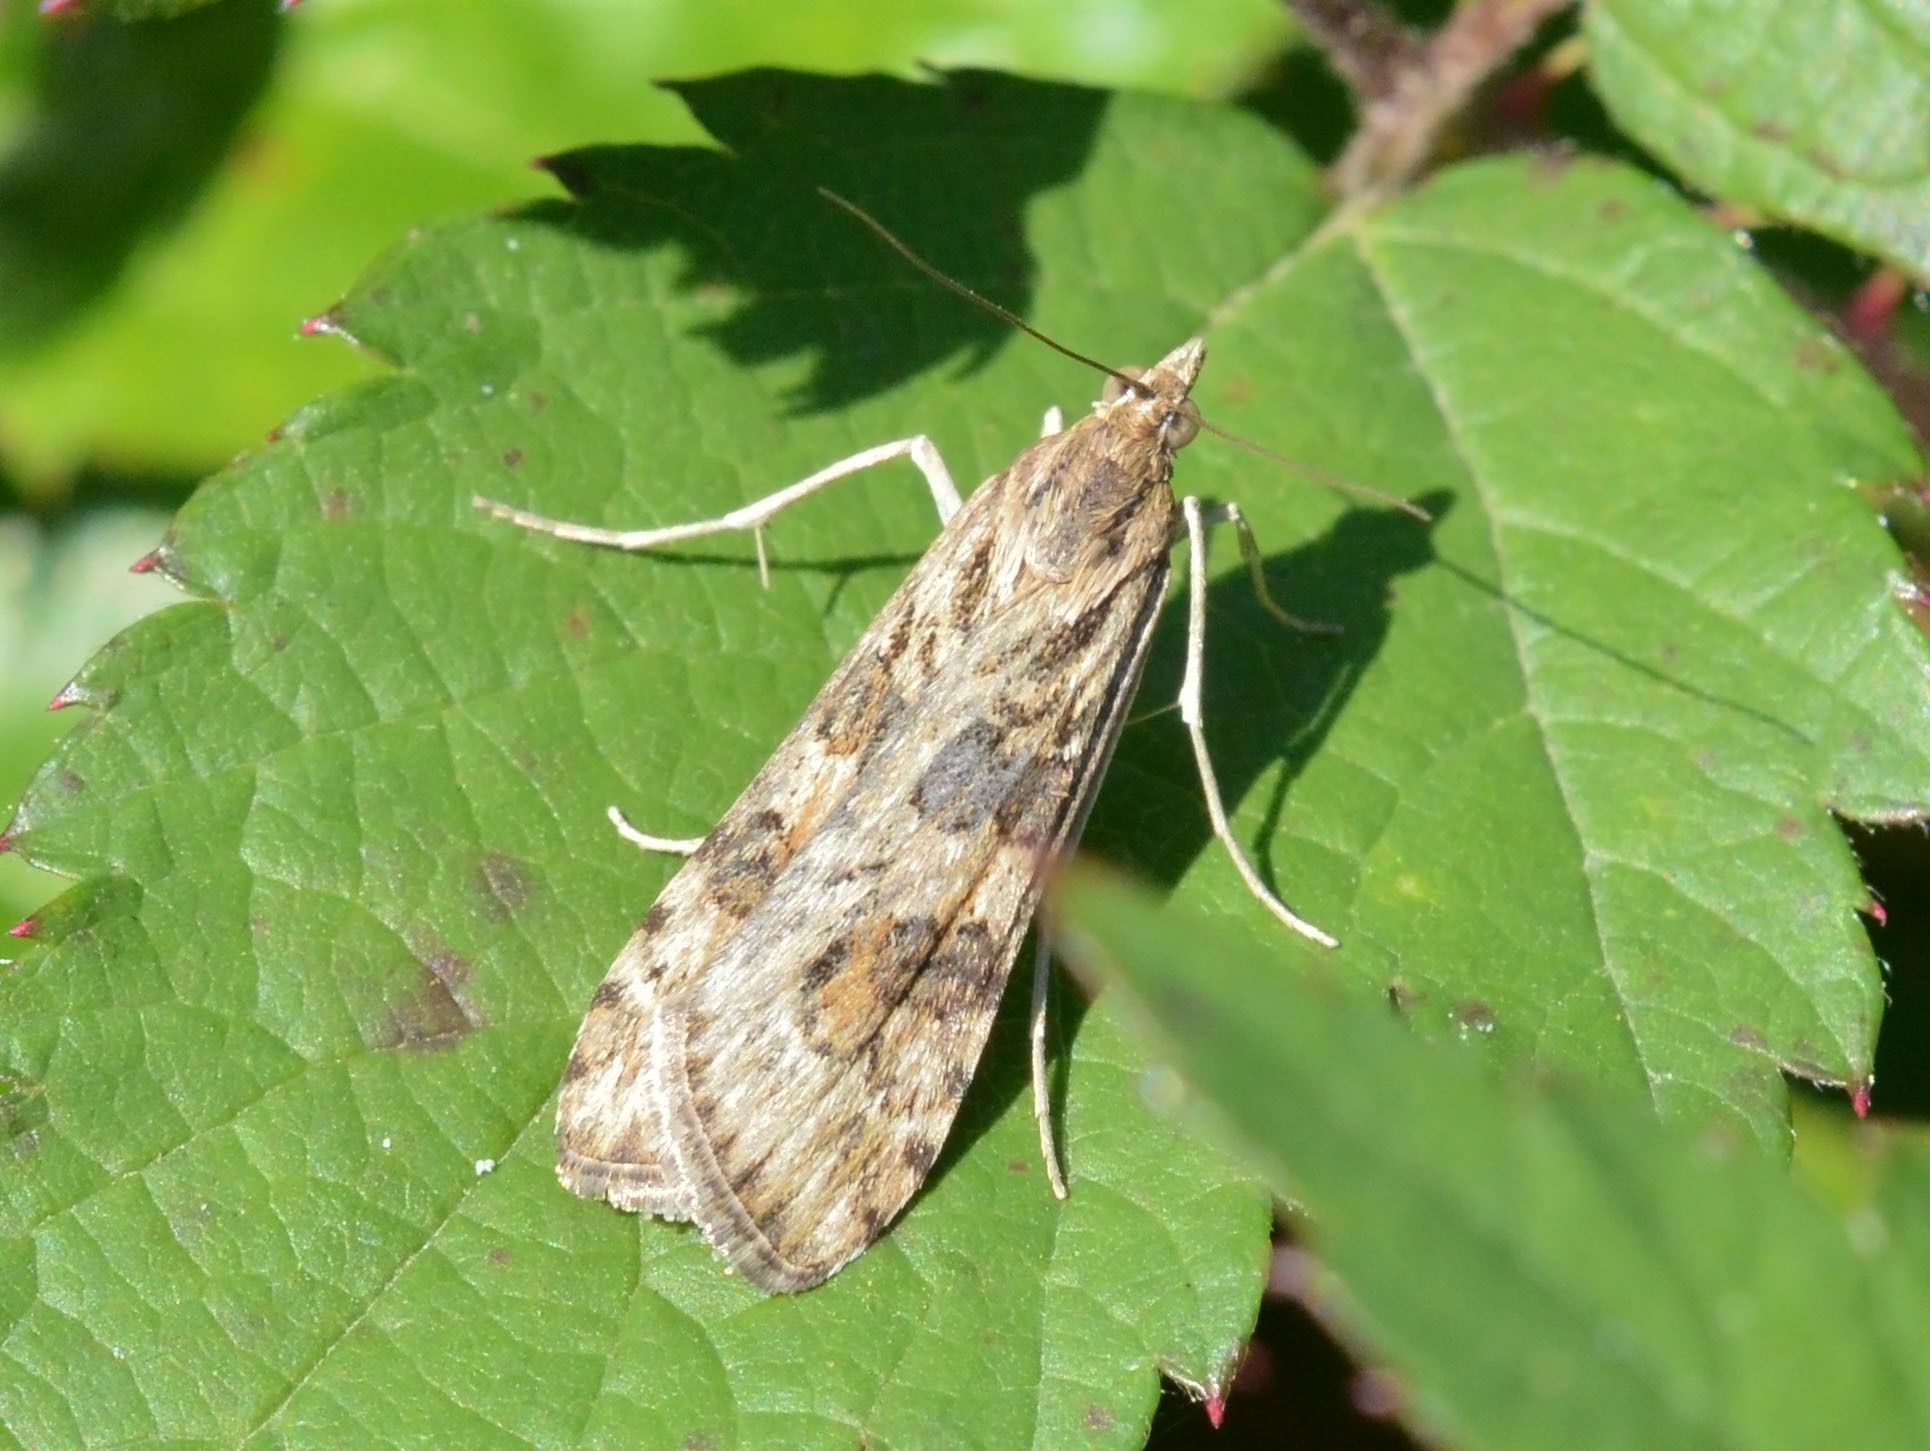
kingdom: Animalia
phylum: Arthropoda
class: Insecta
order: Lepidoptera
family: Crambidae
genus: Nomophila
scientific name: Nomophila noctuella
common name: Rush veneer
